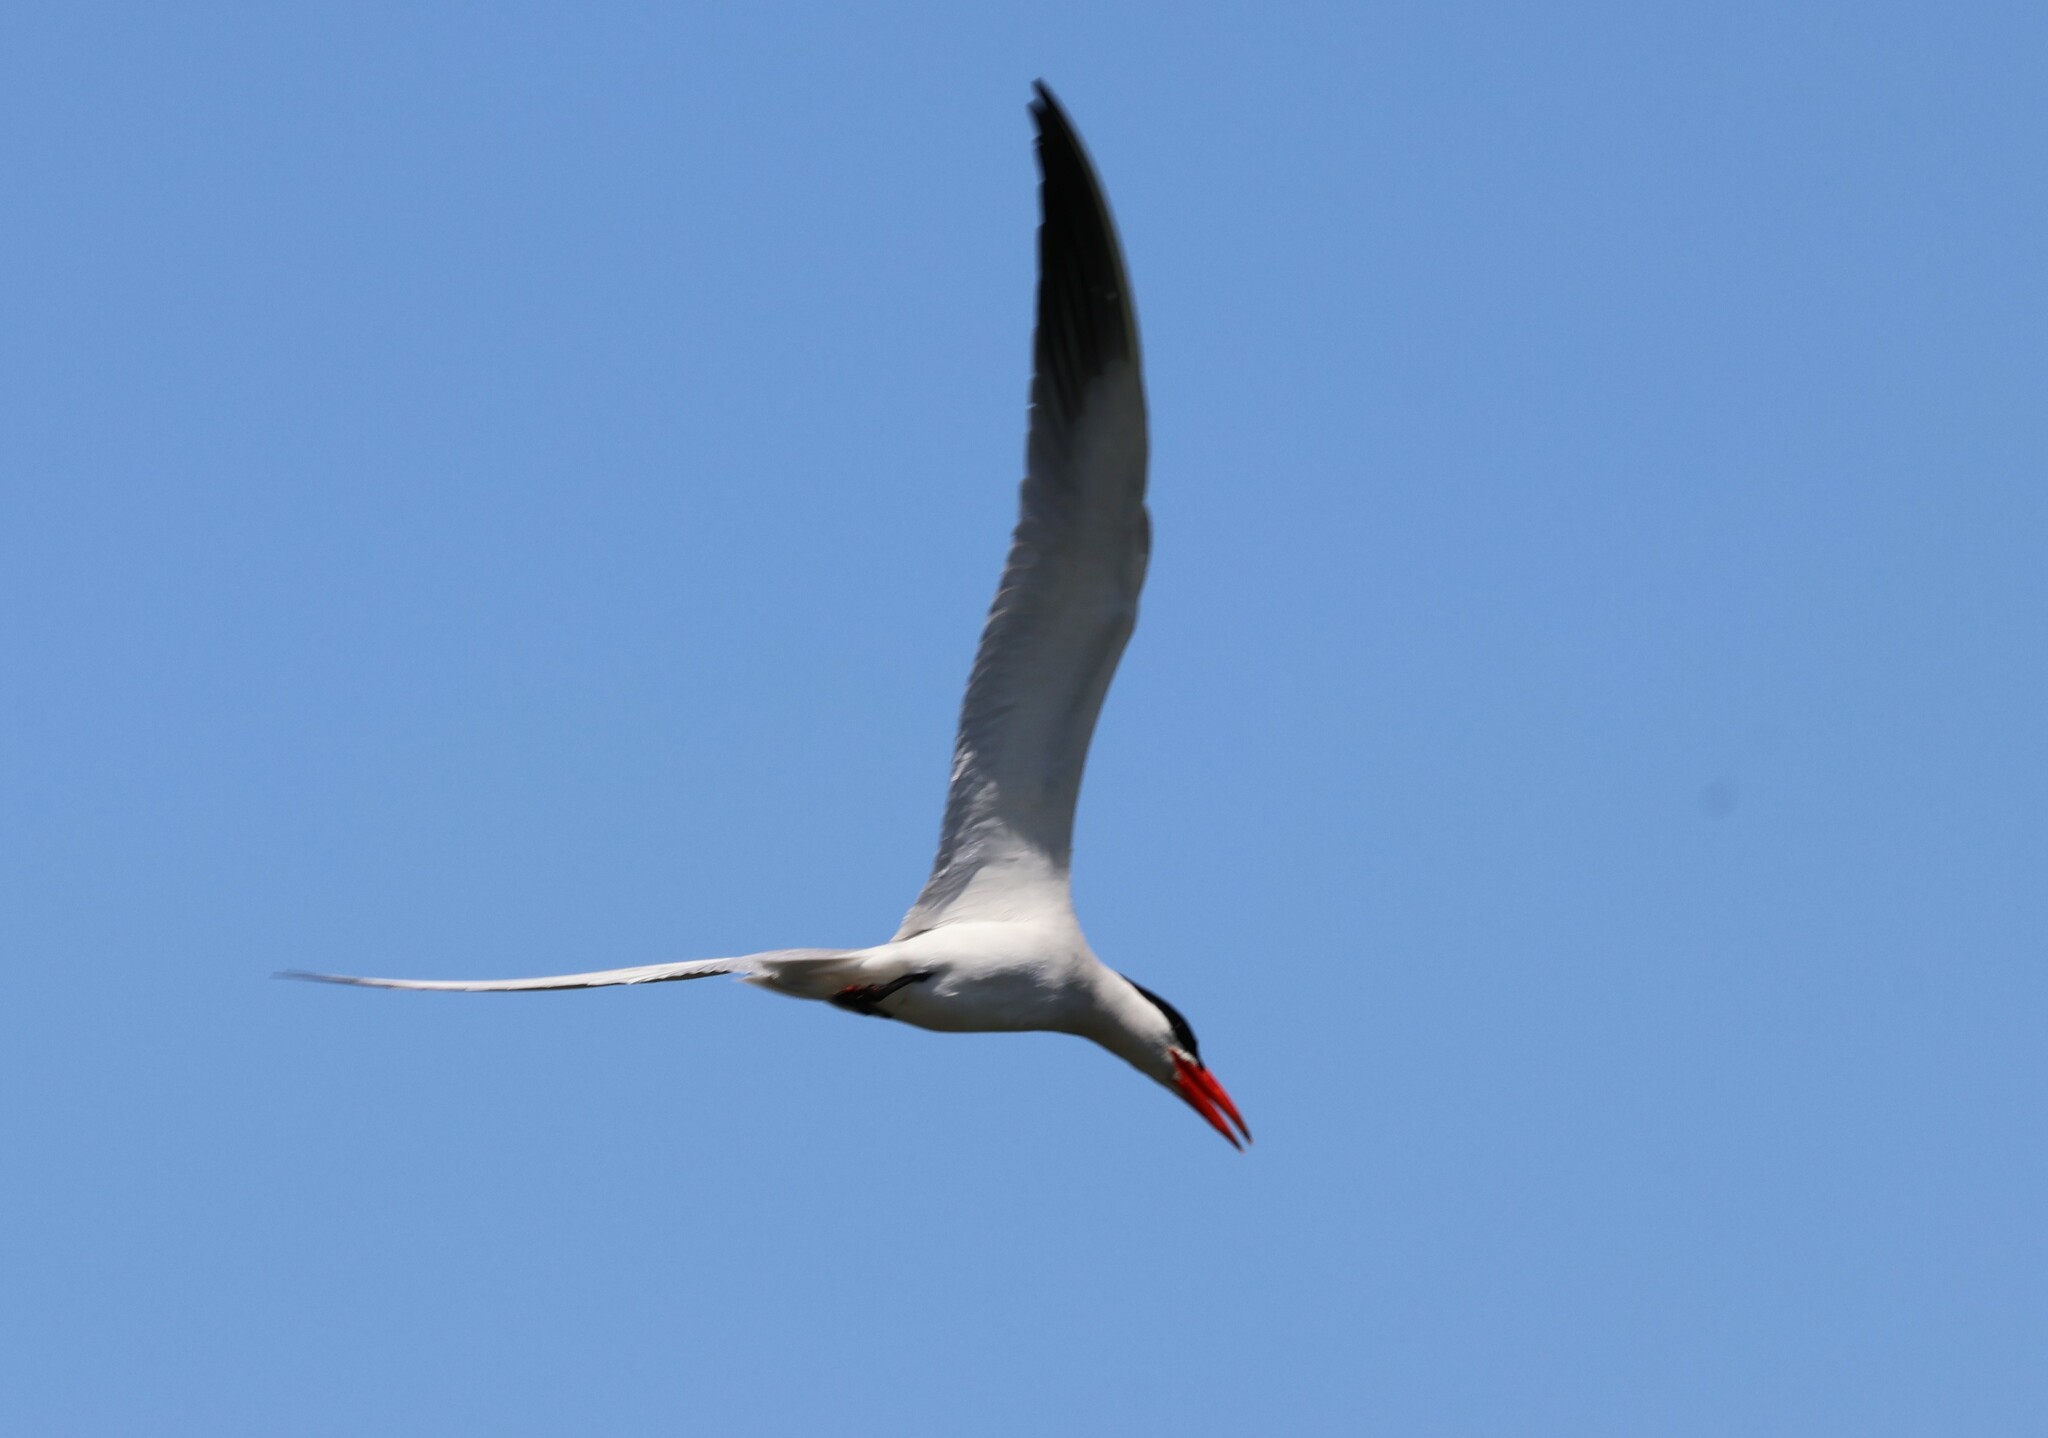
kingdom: Animalia
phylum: Chordata
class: Aves
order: Charadriiformes
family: Laridae
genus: Hydroprogne
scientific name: Hydroprogne caspia
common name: Caspian tern
